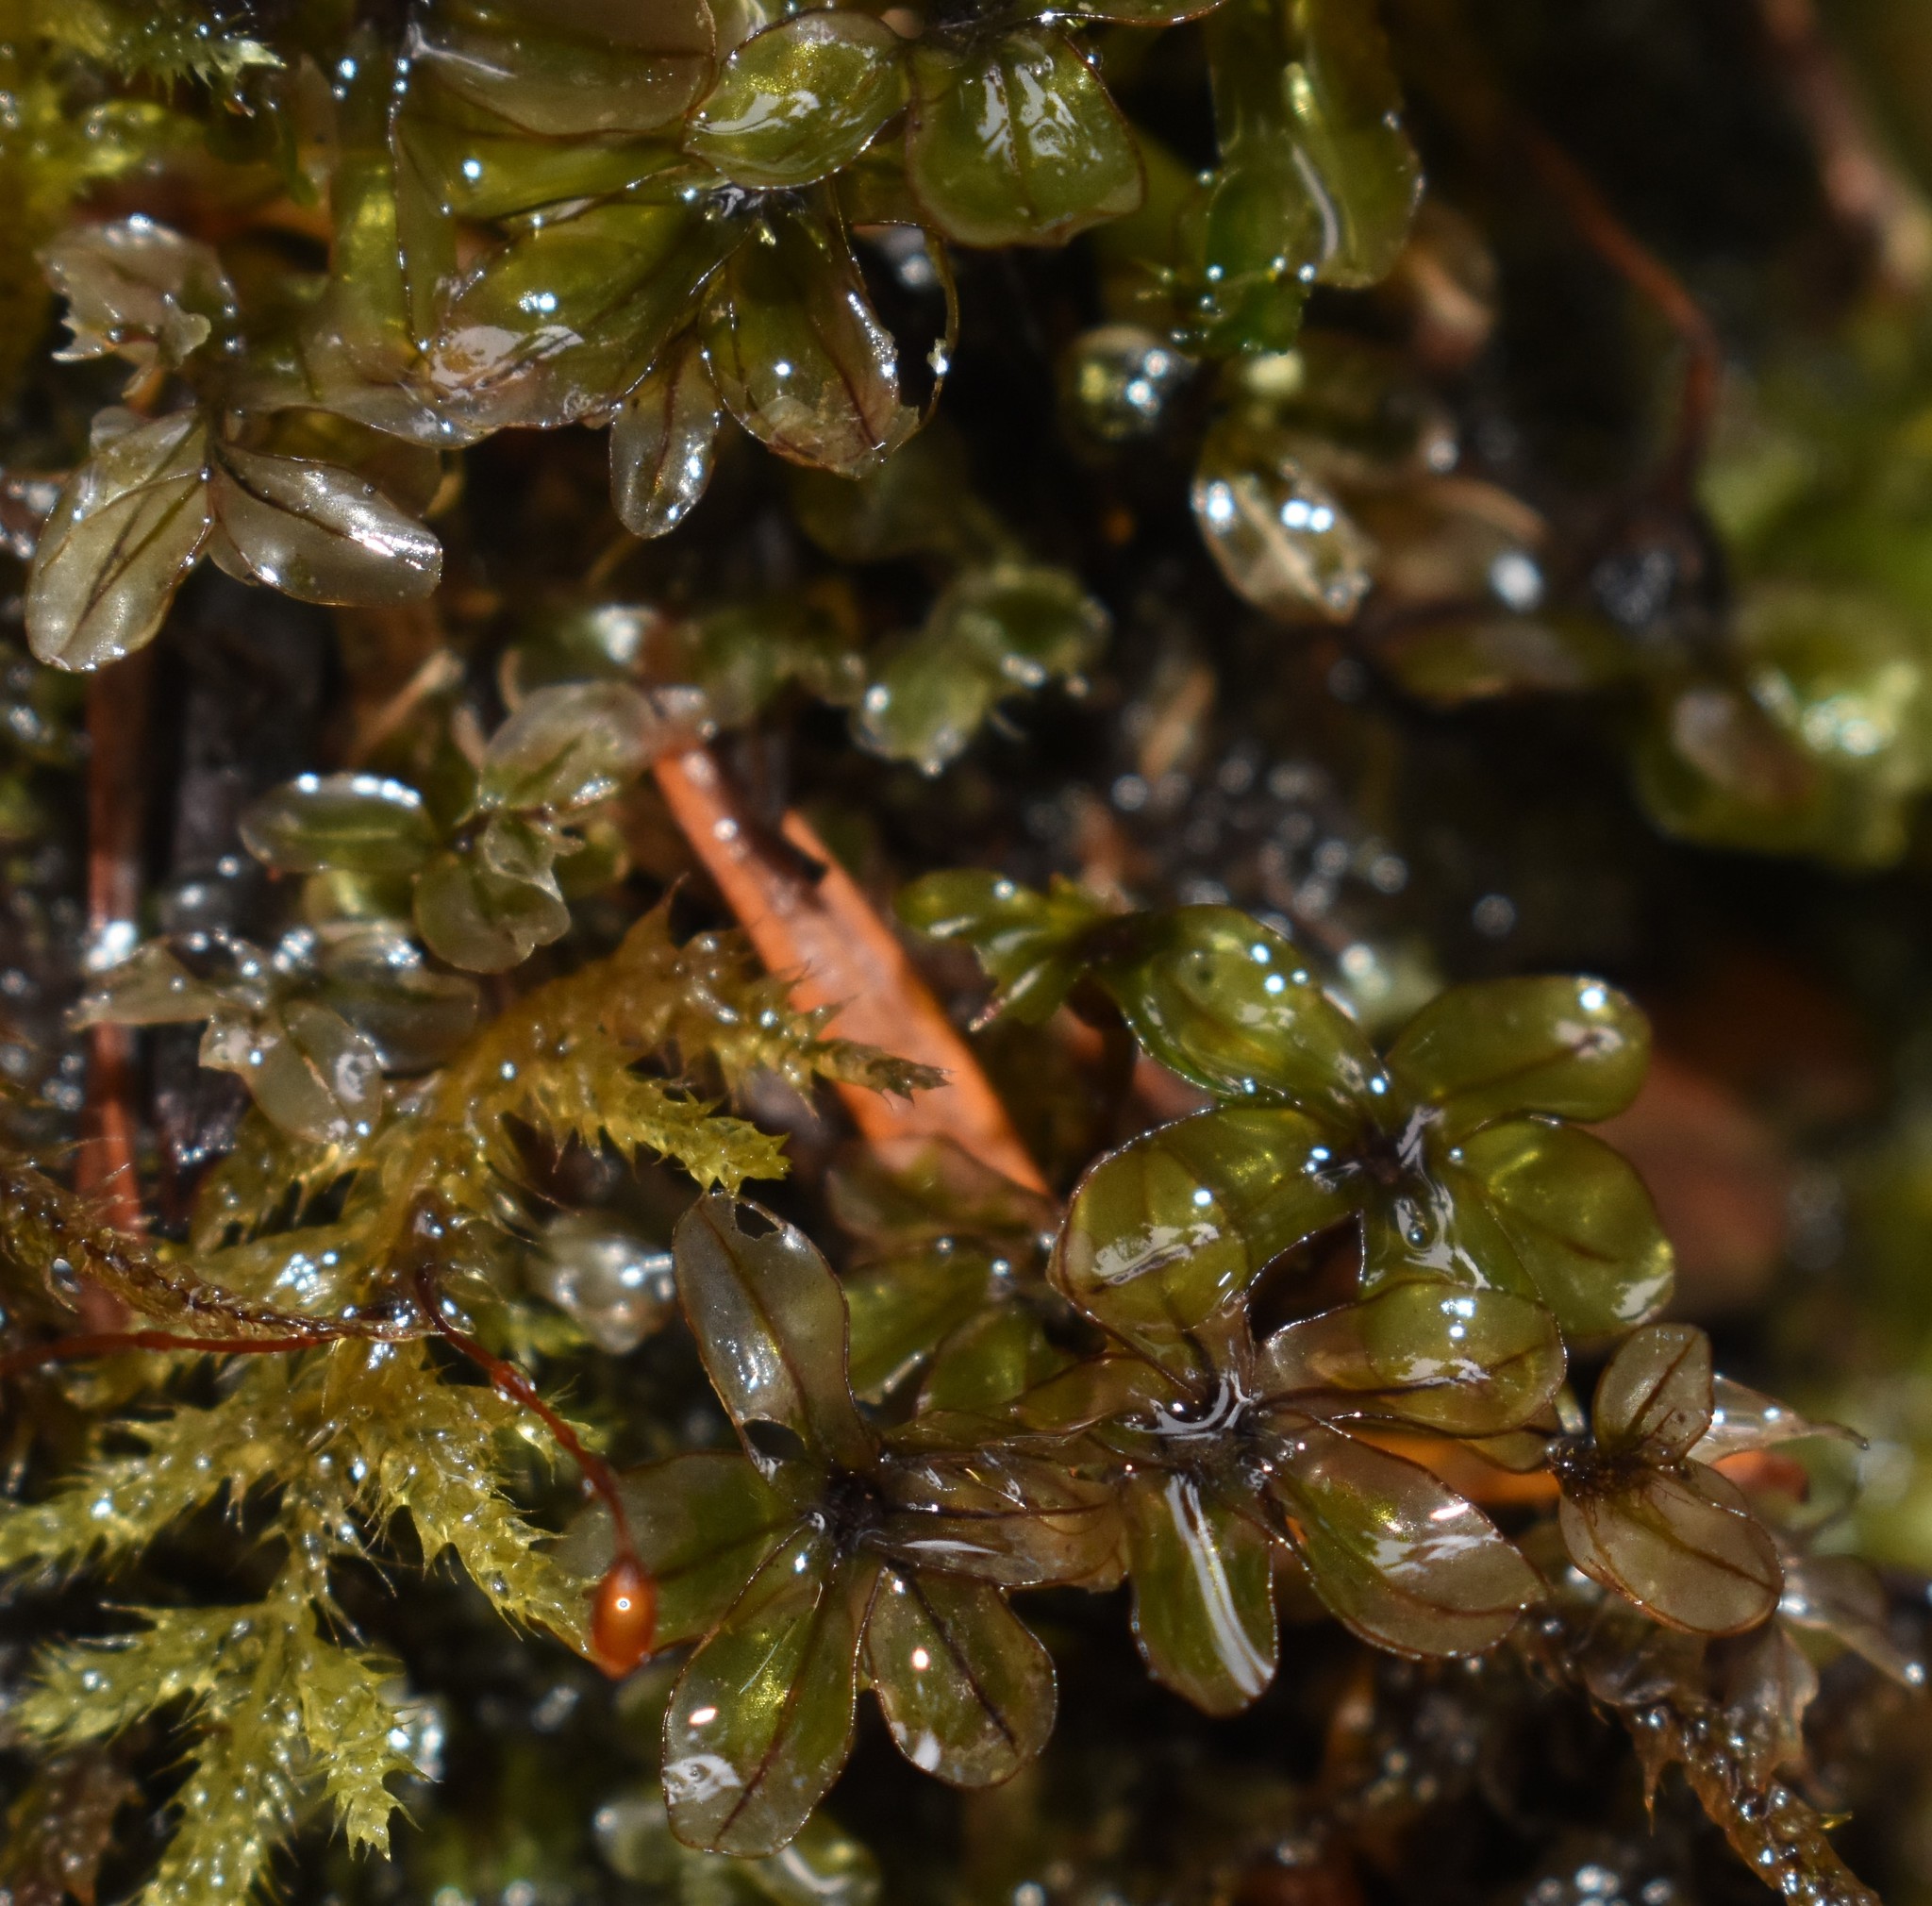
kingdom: Plantae
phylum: Bryophyta
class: Bryopsida
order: Bryales
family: Mniaceae
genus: Rhizomnium
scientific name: Rhizomnium glabrescens
